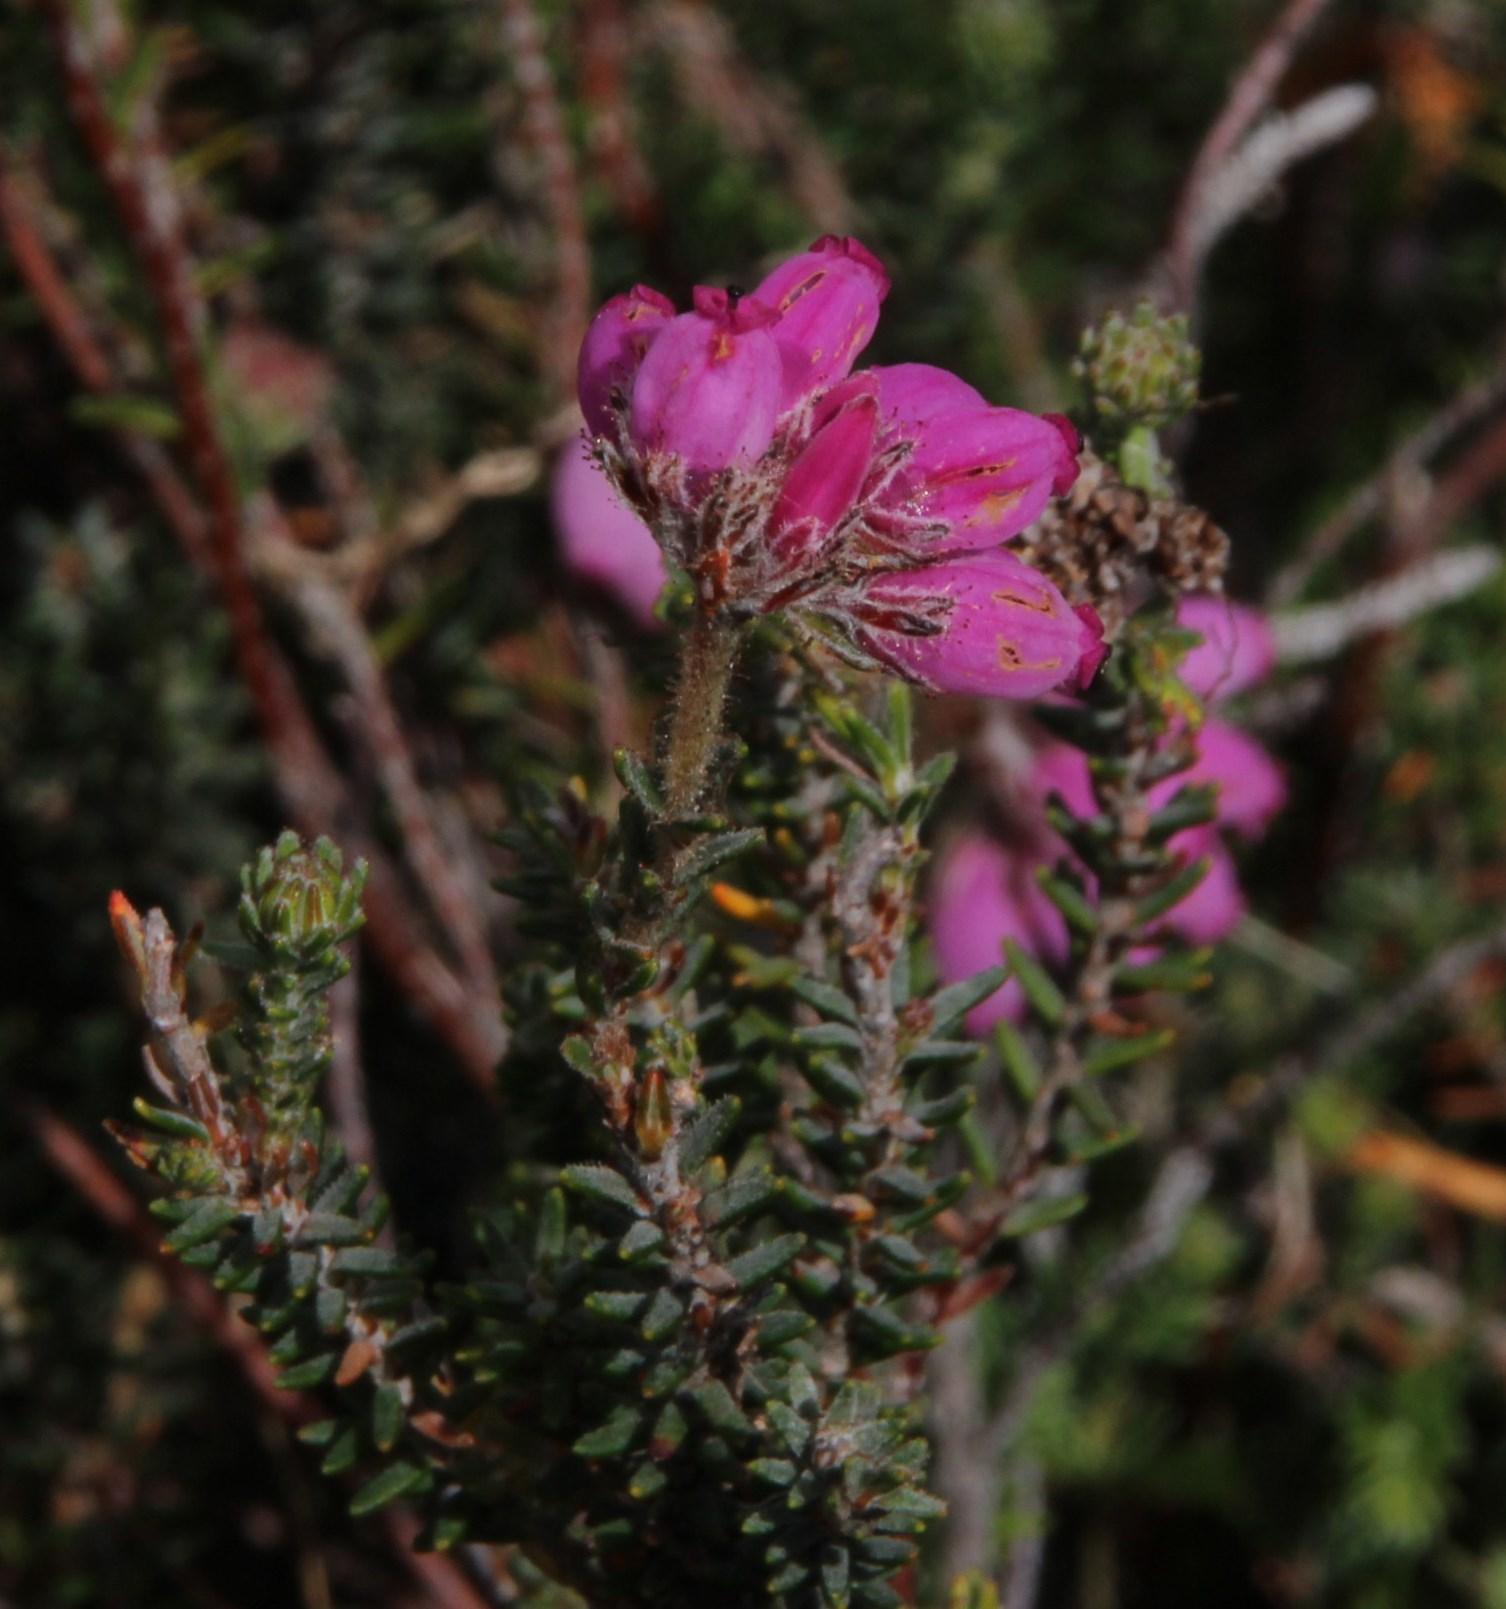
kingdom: Plantae
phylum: Tracheophyta
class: Magnoliopsida
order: Ericales
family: Ericaceae
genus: Erica
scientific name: Erica tetralix
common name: Cross-leaved heath
